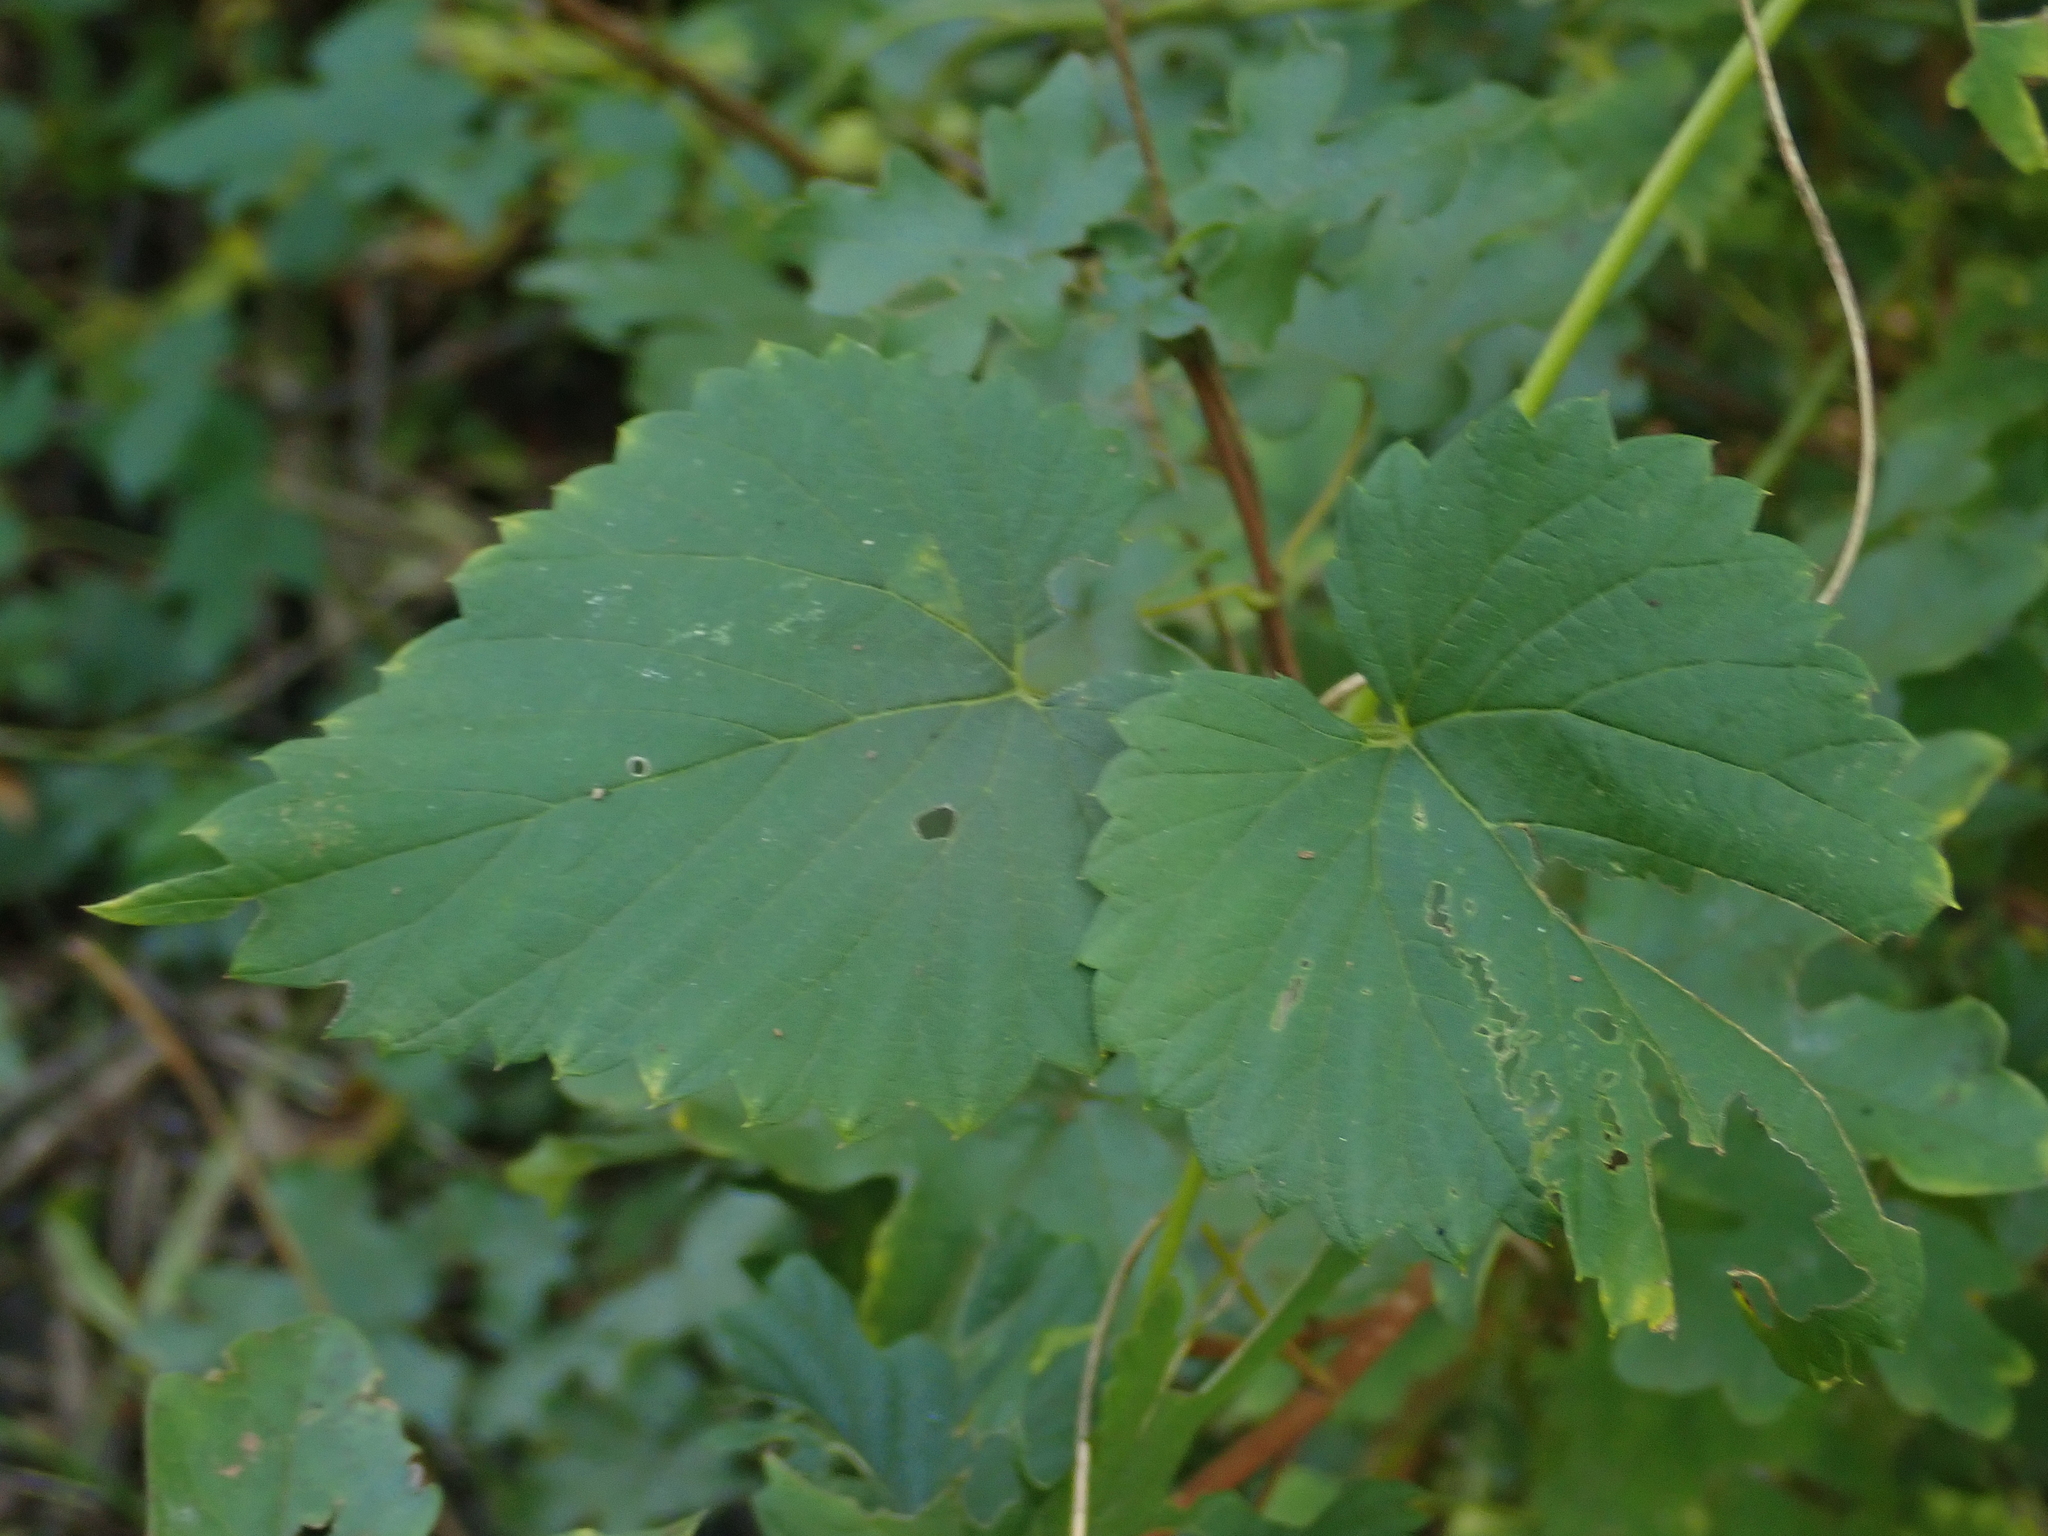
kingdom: Plantae
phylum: Tracheophyta
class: Magnoliopsida
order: Rosales
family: Cannabaceae
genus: Humulus
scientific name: Humulus lupulus
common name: Hop
